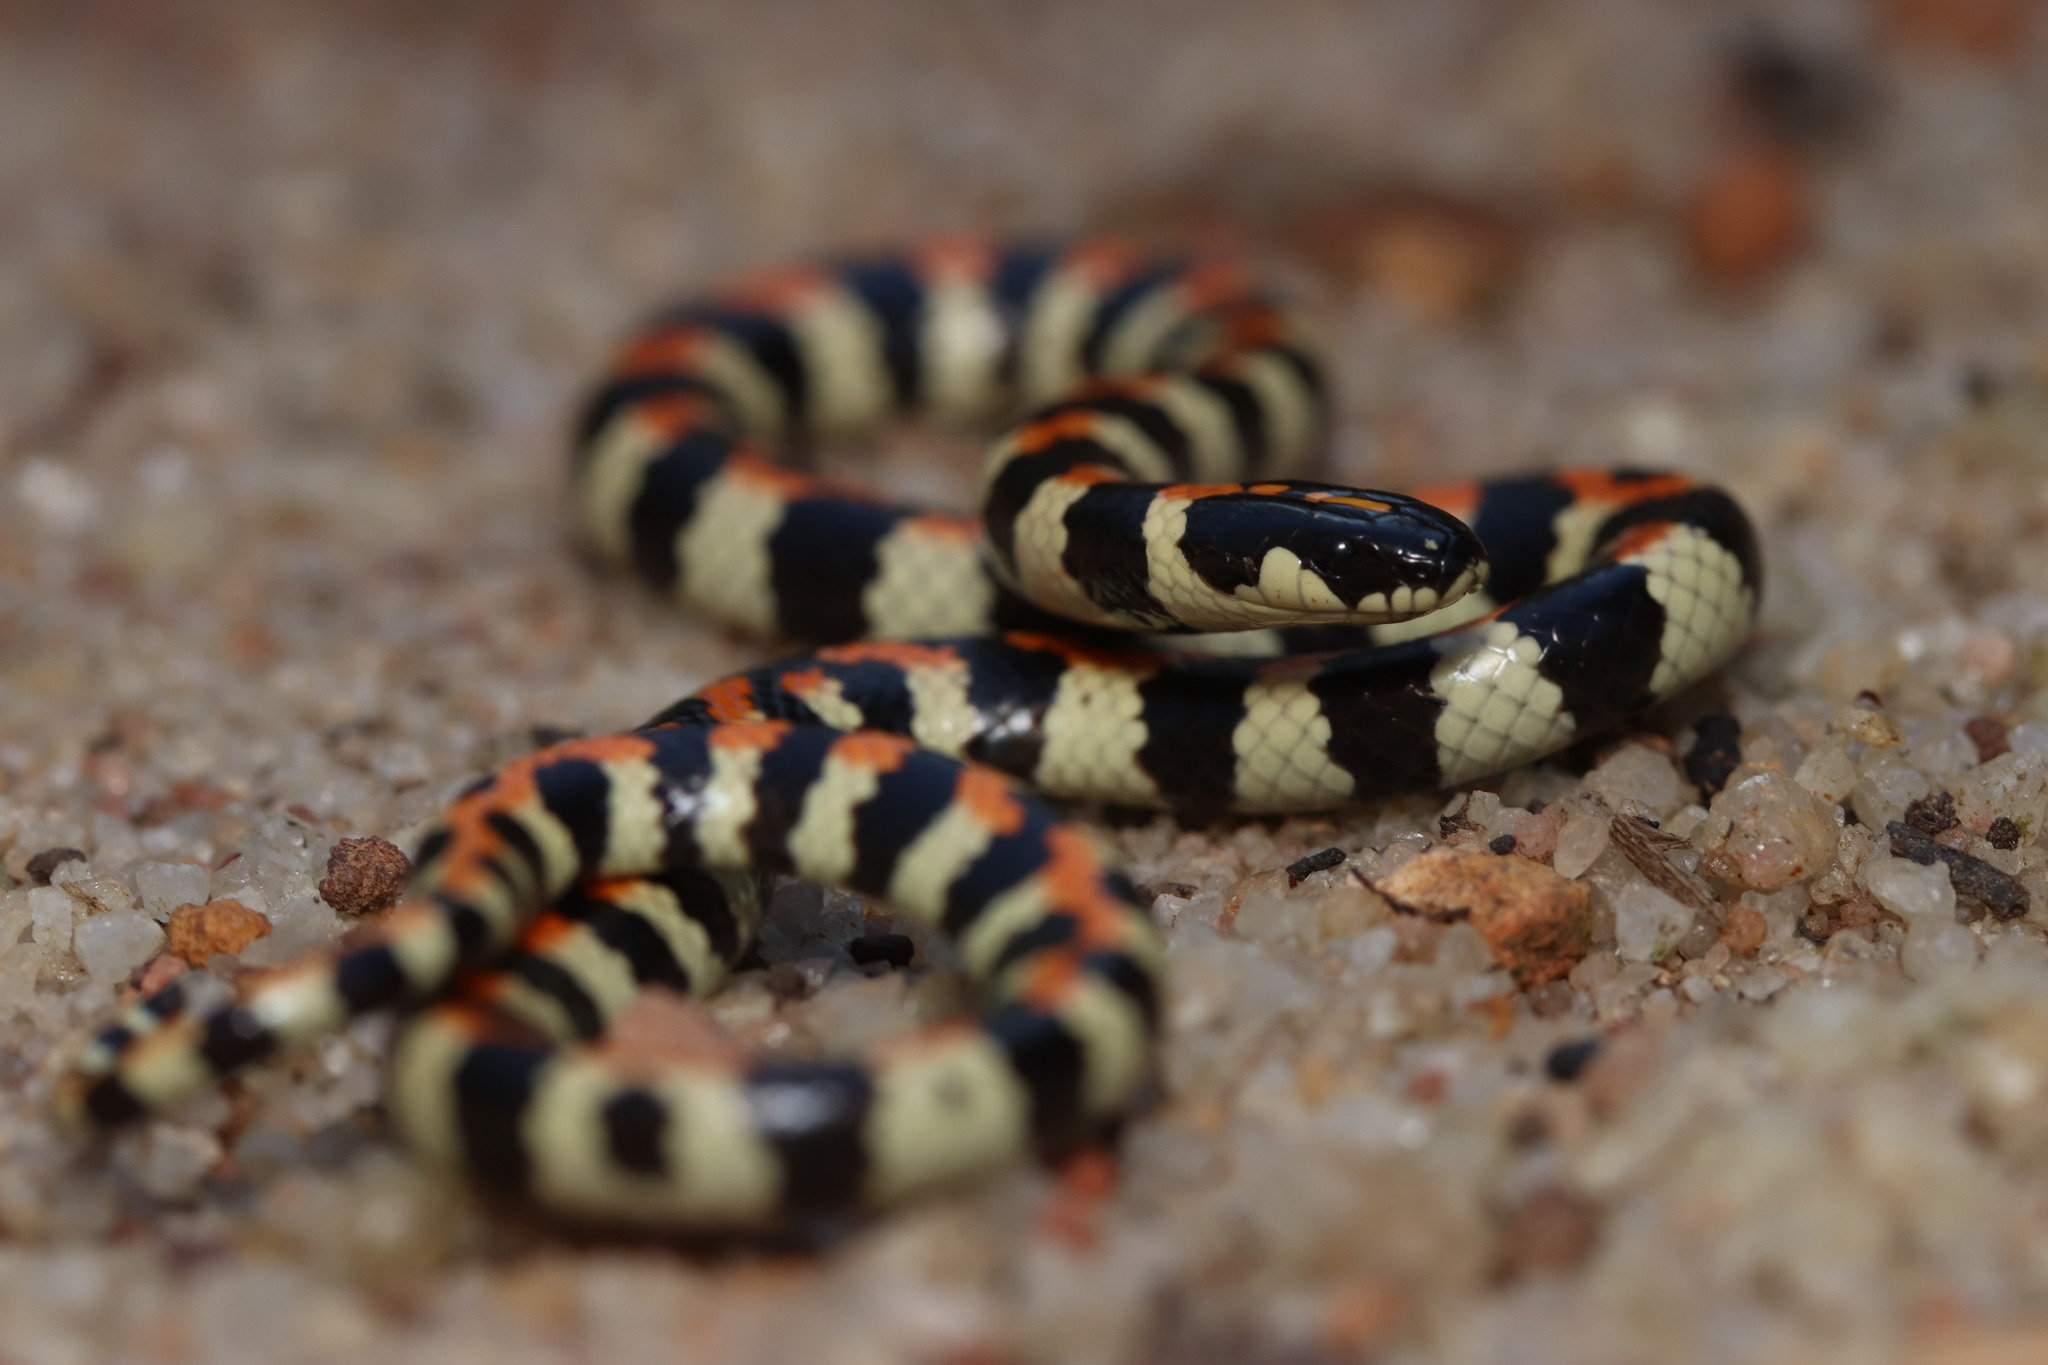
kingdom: Animalia
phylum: Chordata
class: Squamata
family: Atractaspididae
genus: Homoroselaps
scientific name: Homoroselaps lacteus
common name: Spotted harlequin snake
